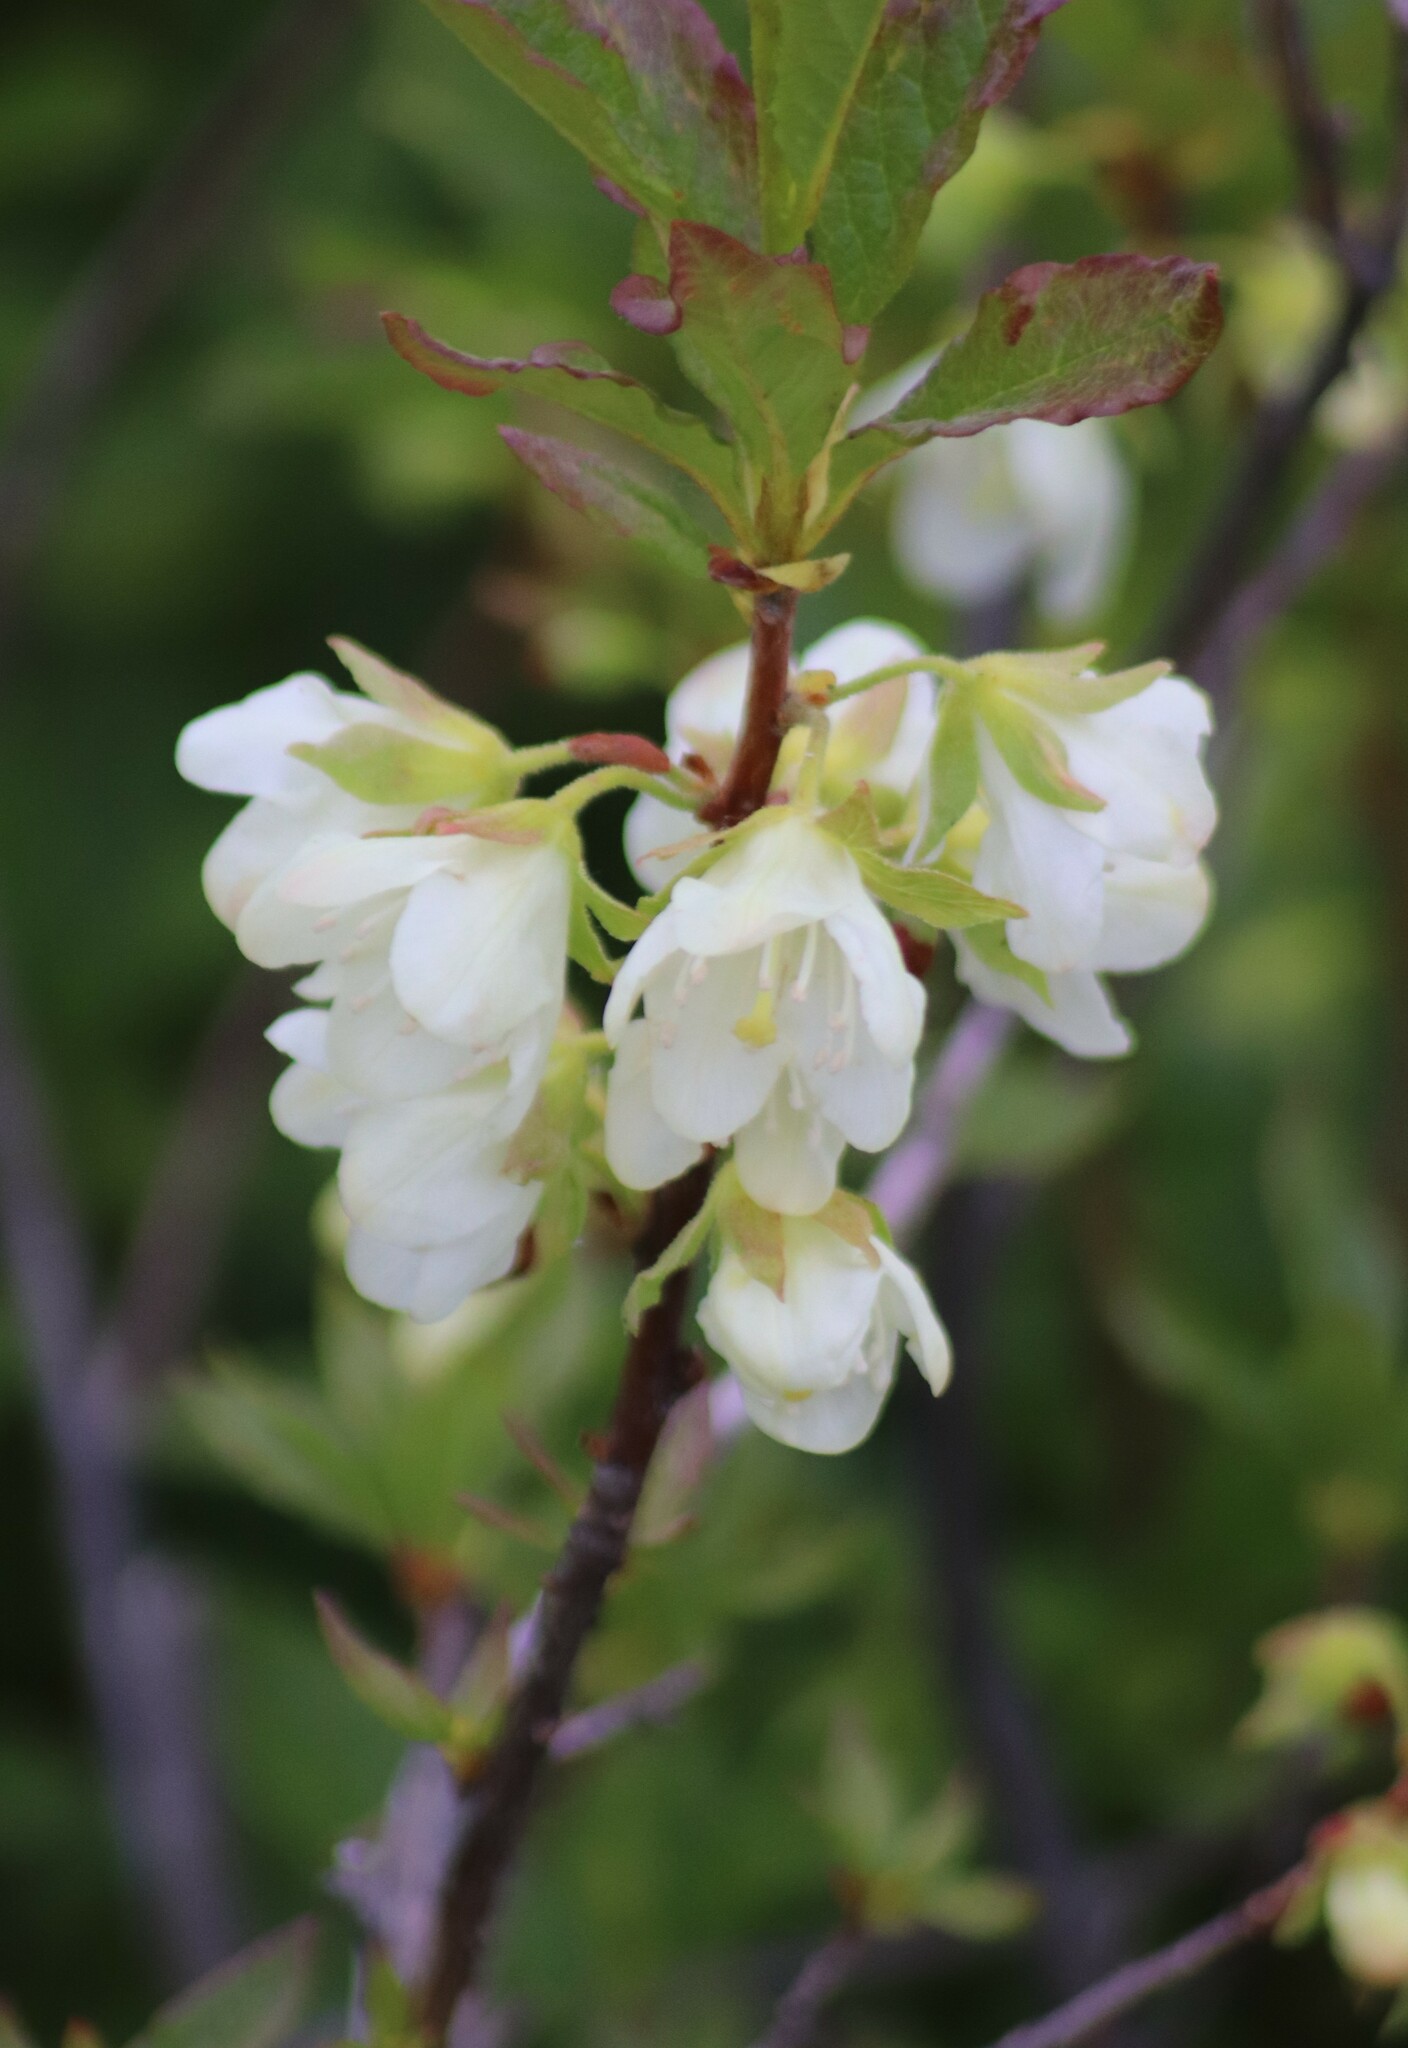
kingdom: Plantae
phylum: Tracheophyta
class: Magnoliopsida
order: Ericales
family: Ericaceae
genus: Rhododendron
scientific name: Rhododendron albiflorum
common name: White rhododendron
